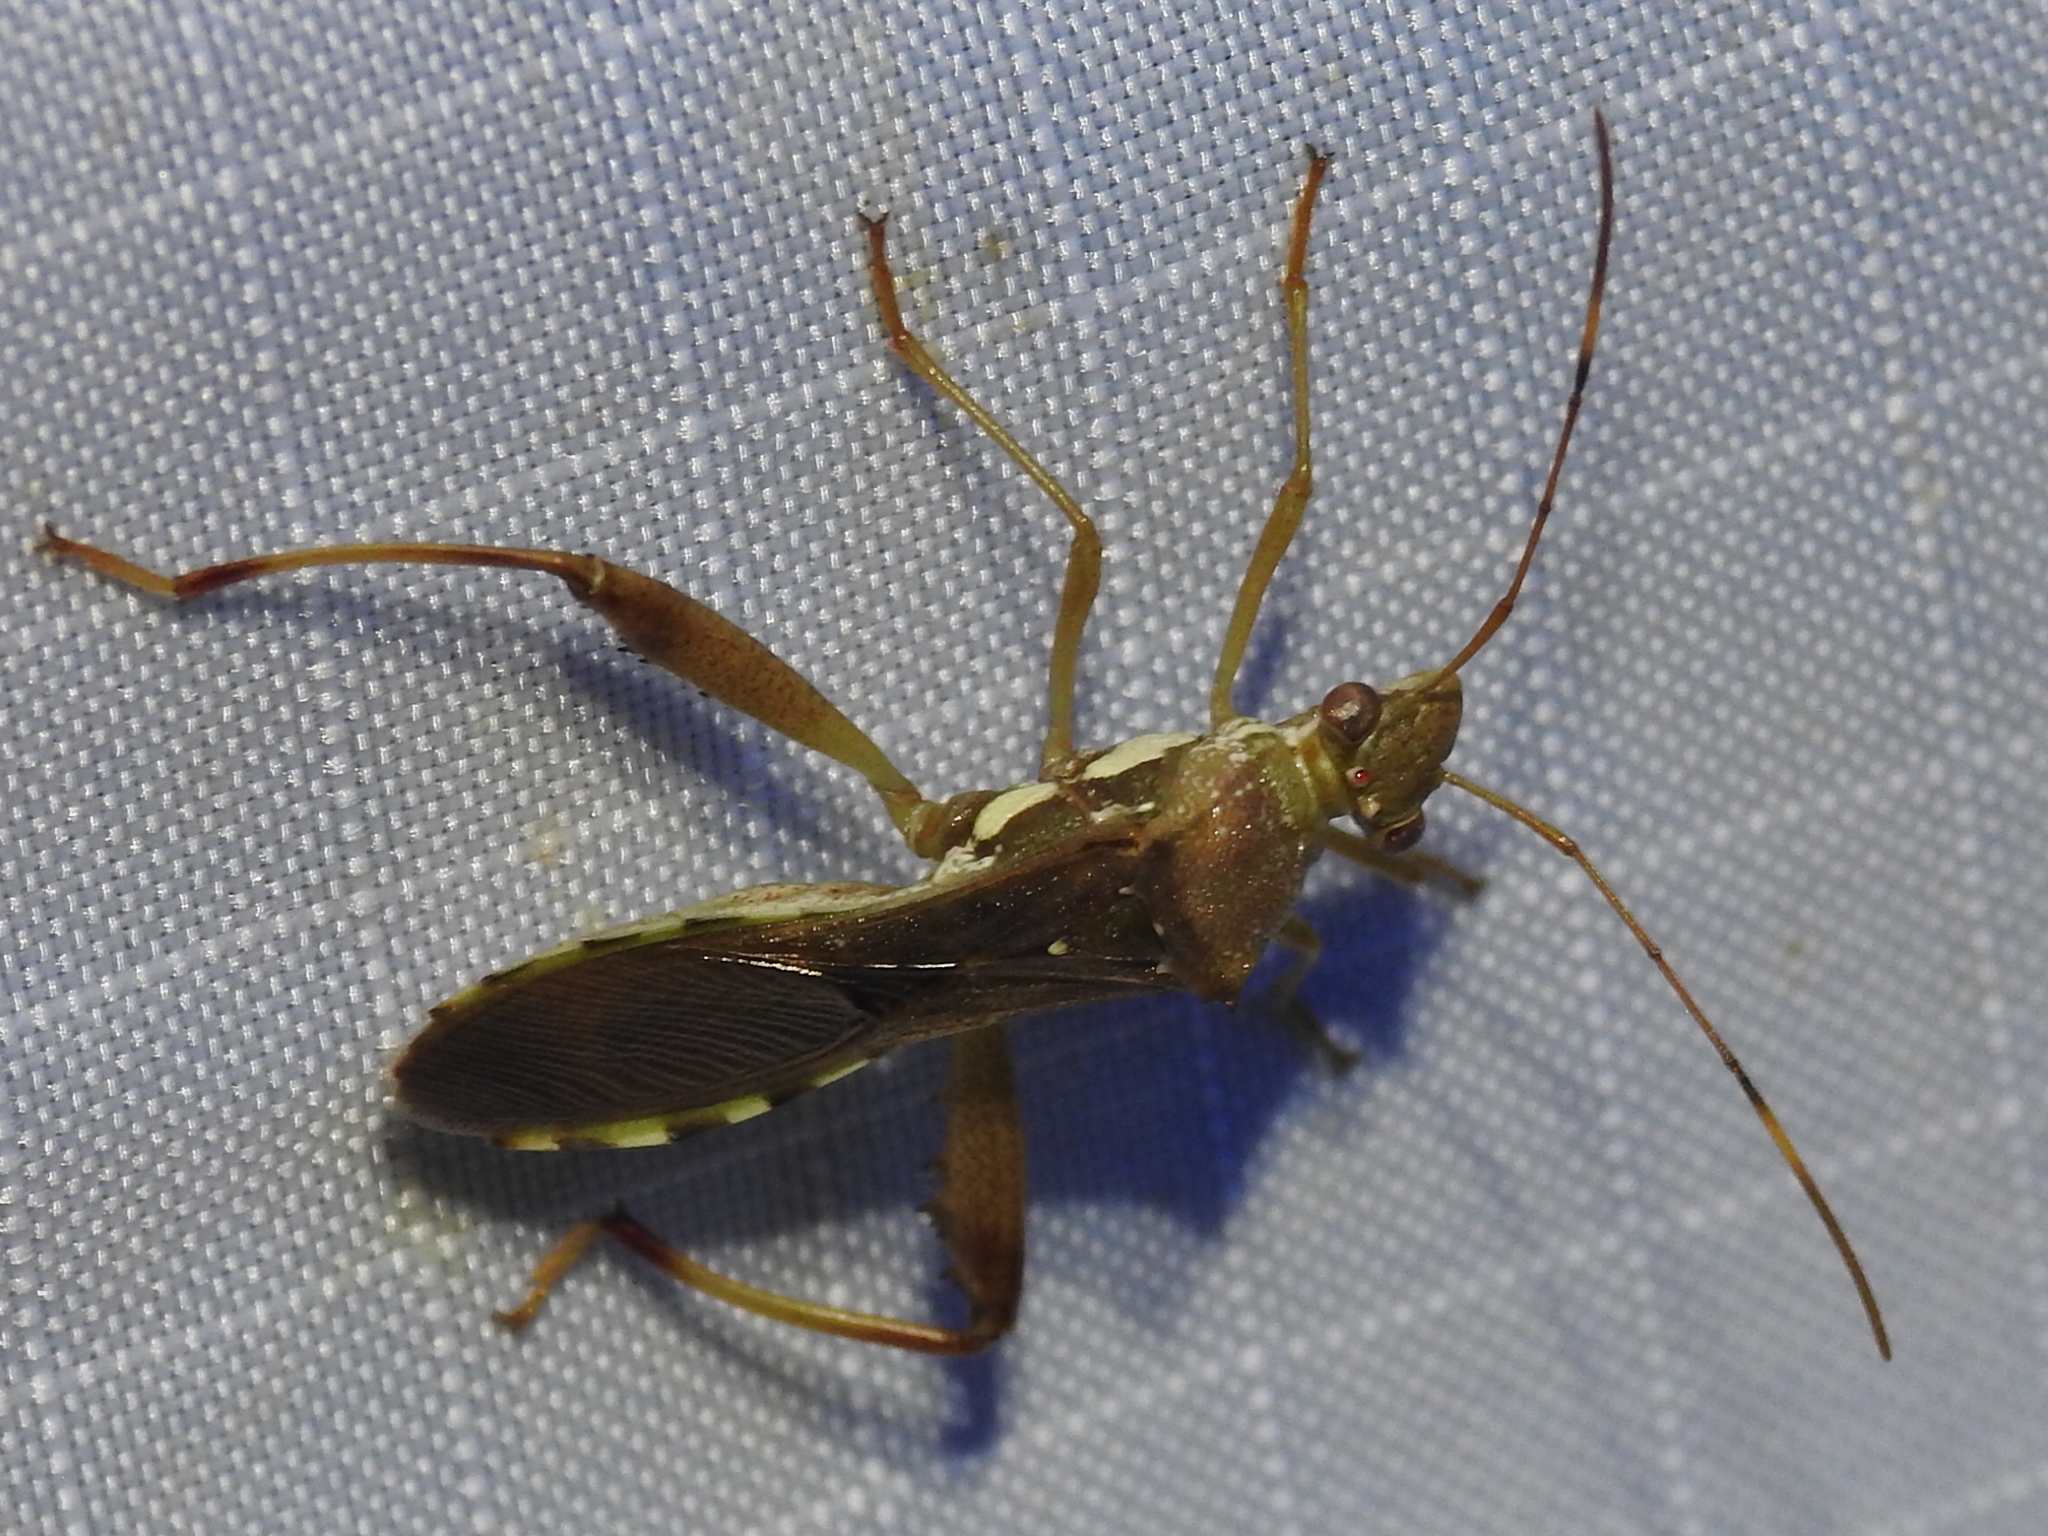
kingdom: Animalia
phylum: Arthropoda
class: Insecta
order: Hemiptera
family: Alydidae
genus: Hyalymenus
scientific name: Hyalymenus tarsatus
